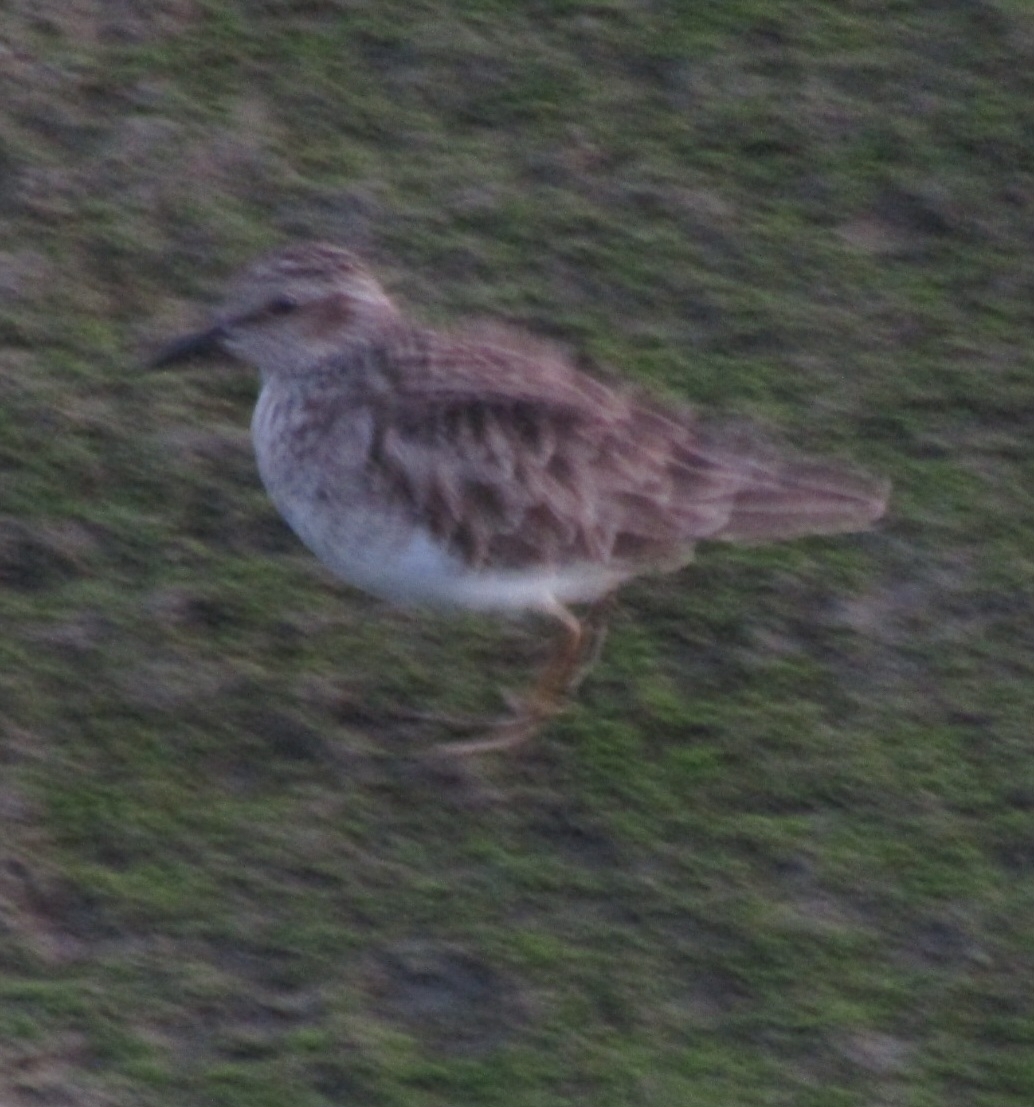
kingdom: Animalia
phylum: Chordata
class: Aves
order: Charadriiformes
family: Scolopacidae
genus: Calidris
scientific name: Calidris minutilla
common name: Least sandpiper
